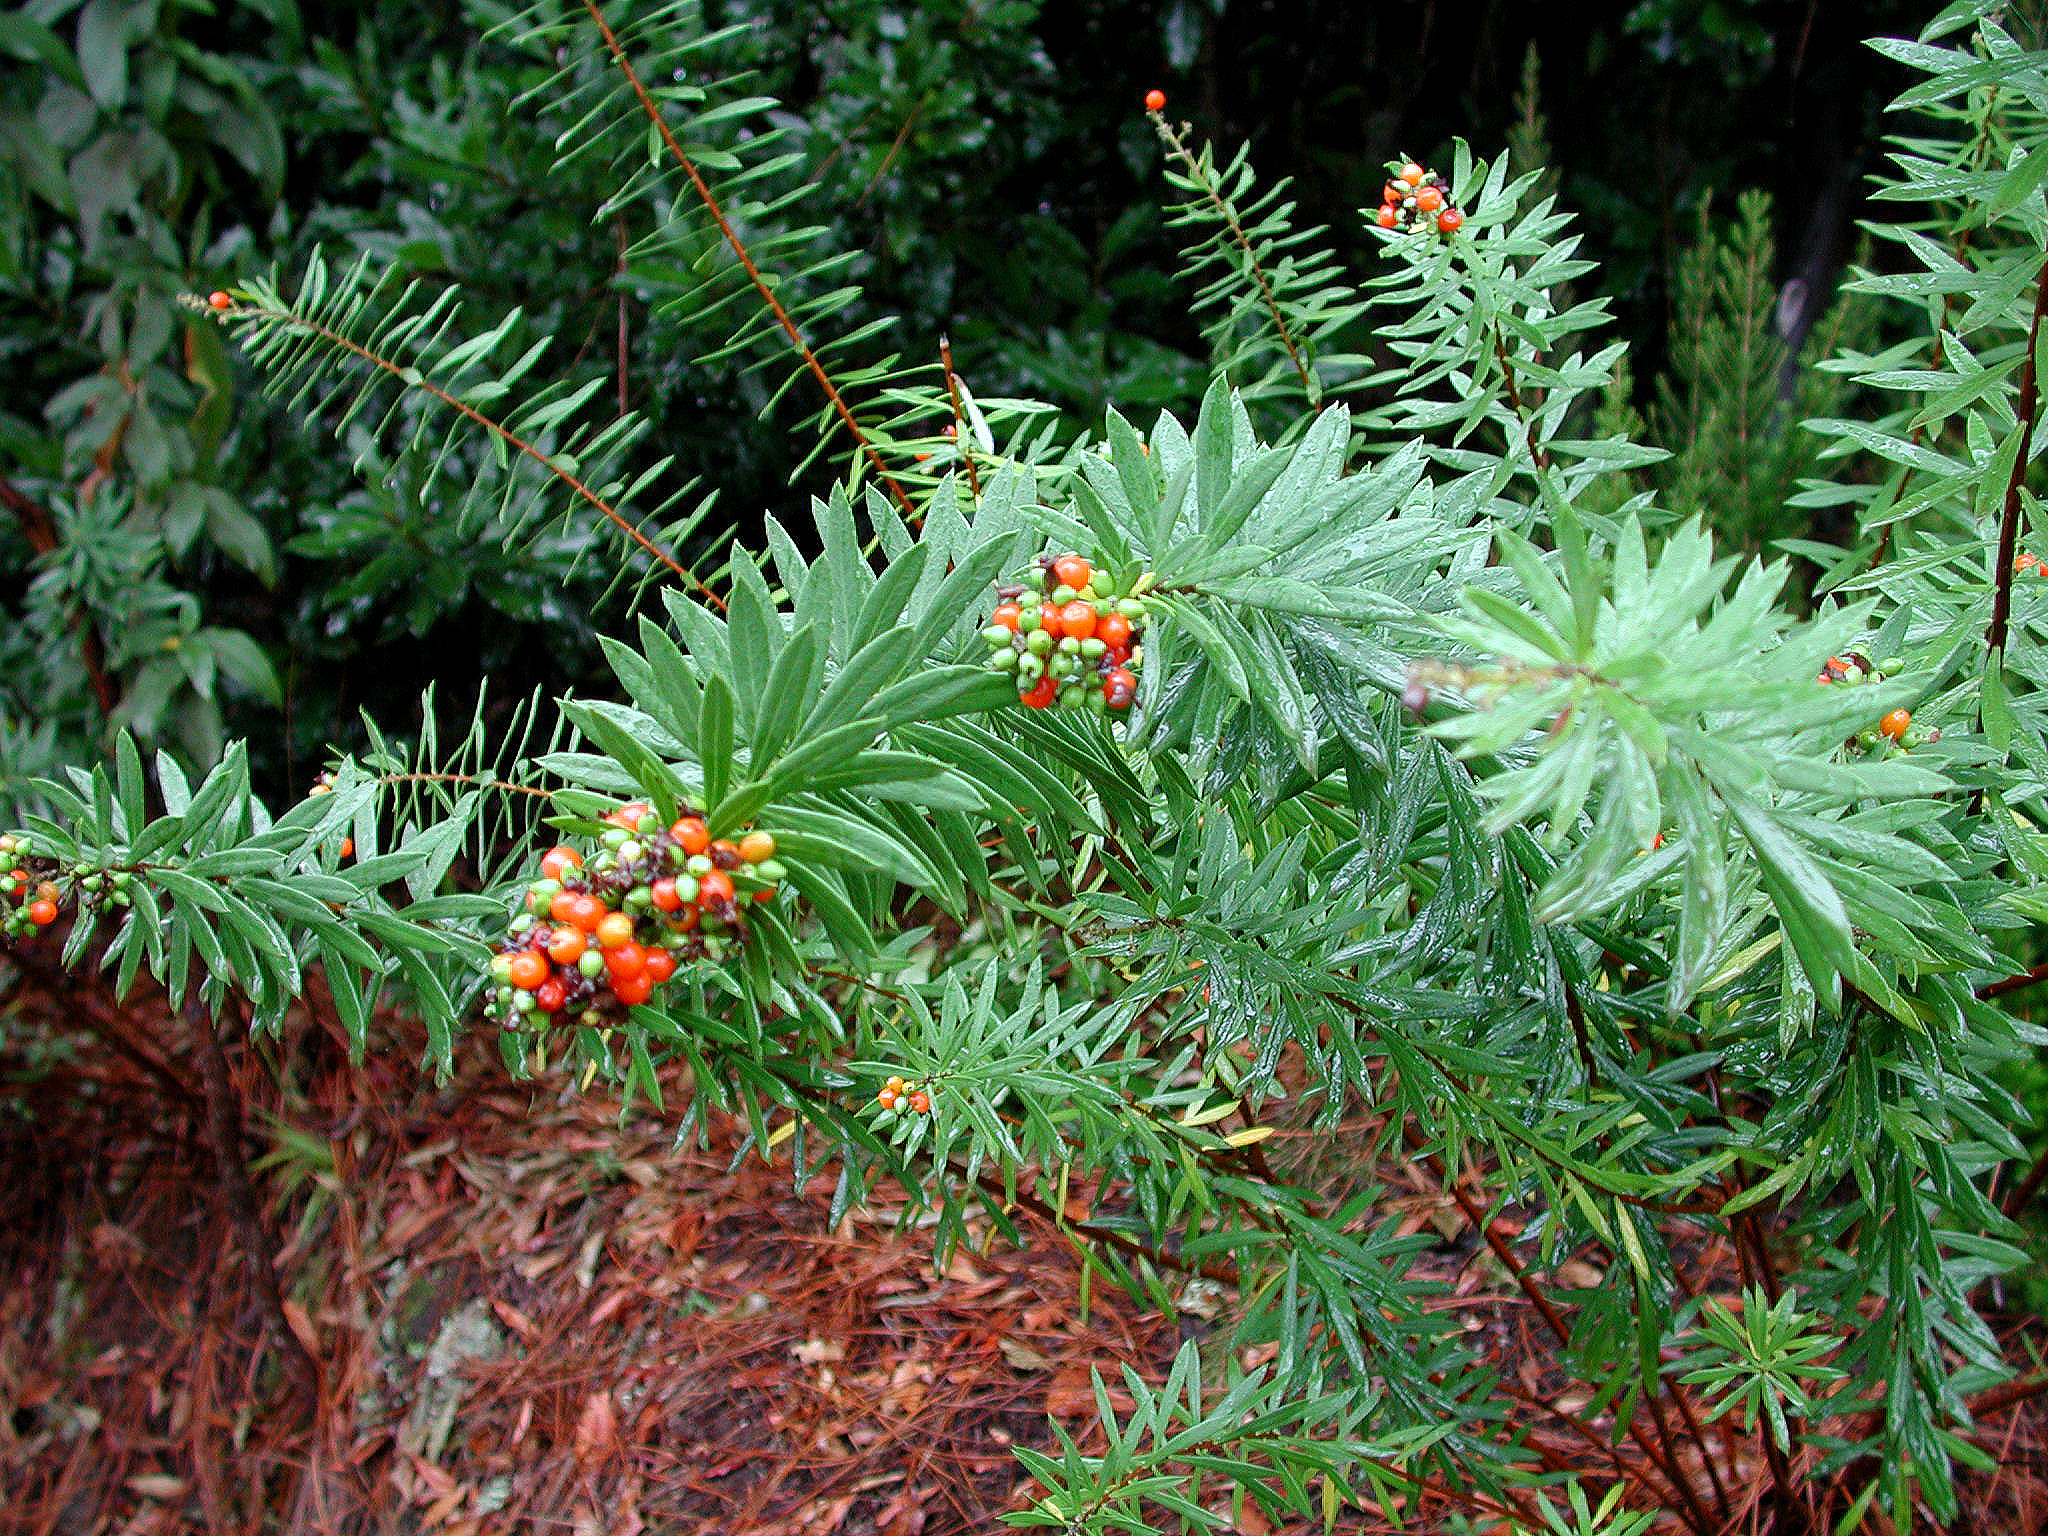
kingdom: Plantae
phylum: Tracheophyta
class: Magnoliopsida
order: Malvales
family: Thymelaeaceae
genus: Daphne
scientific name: Daphne gnidium
